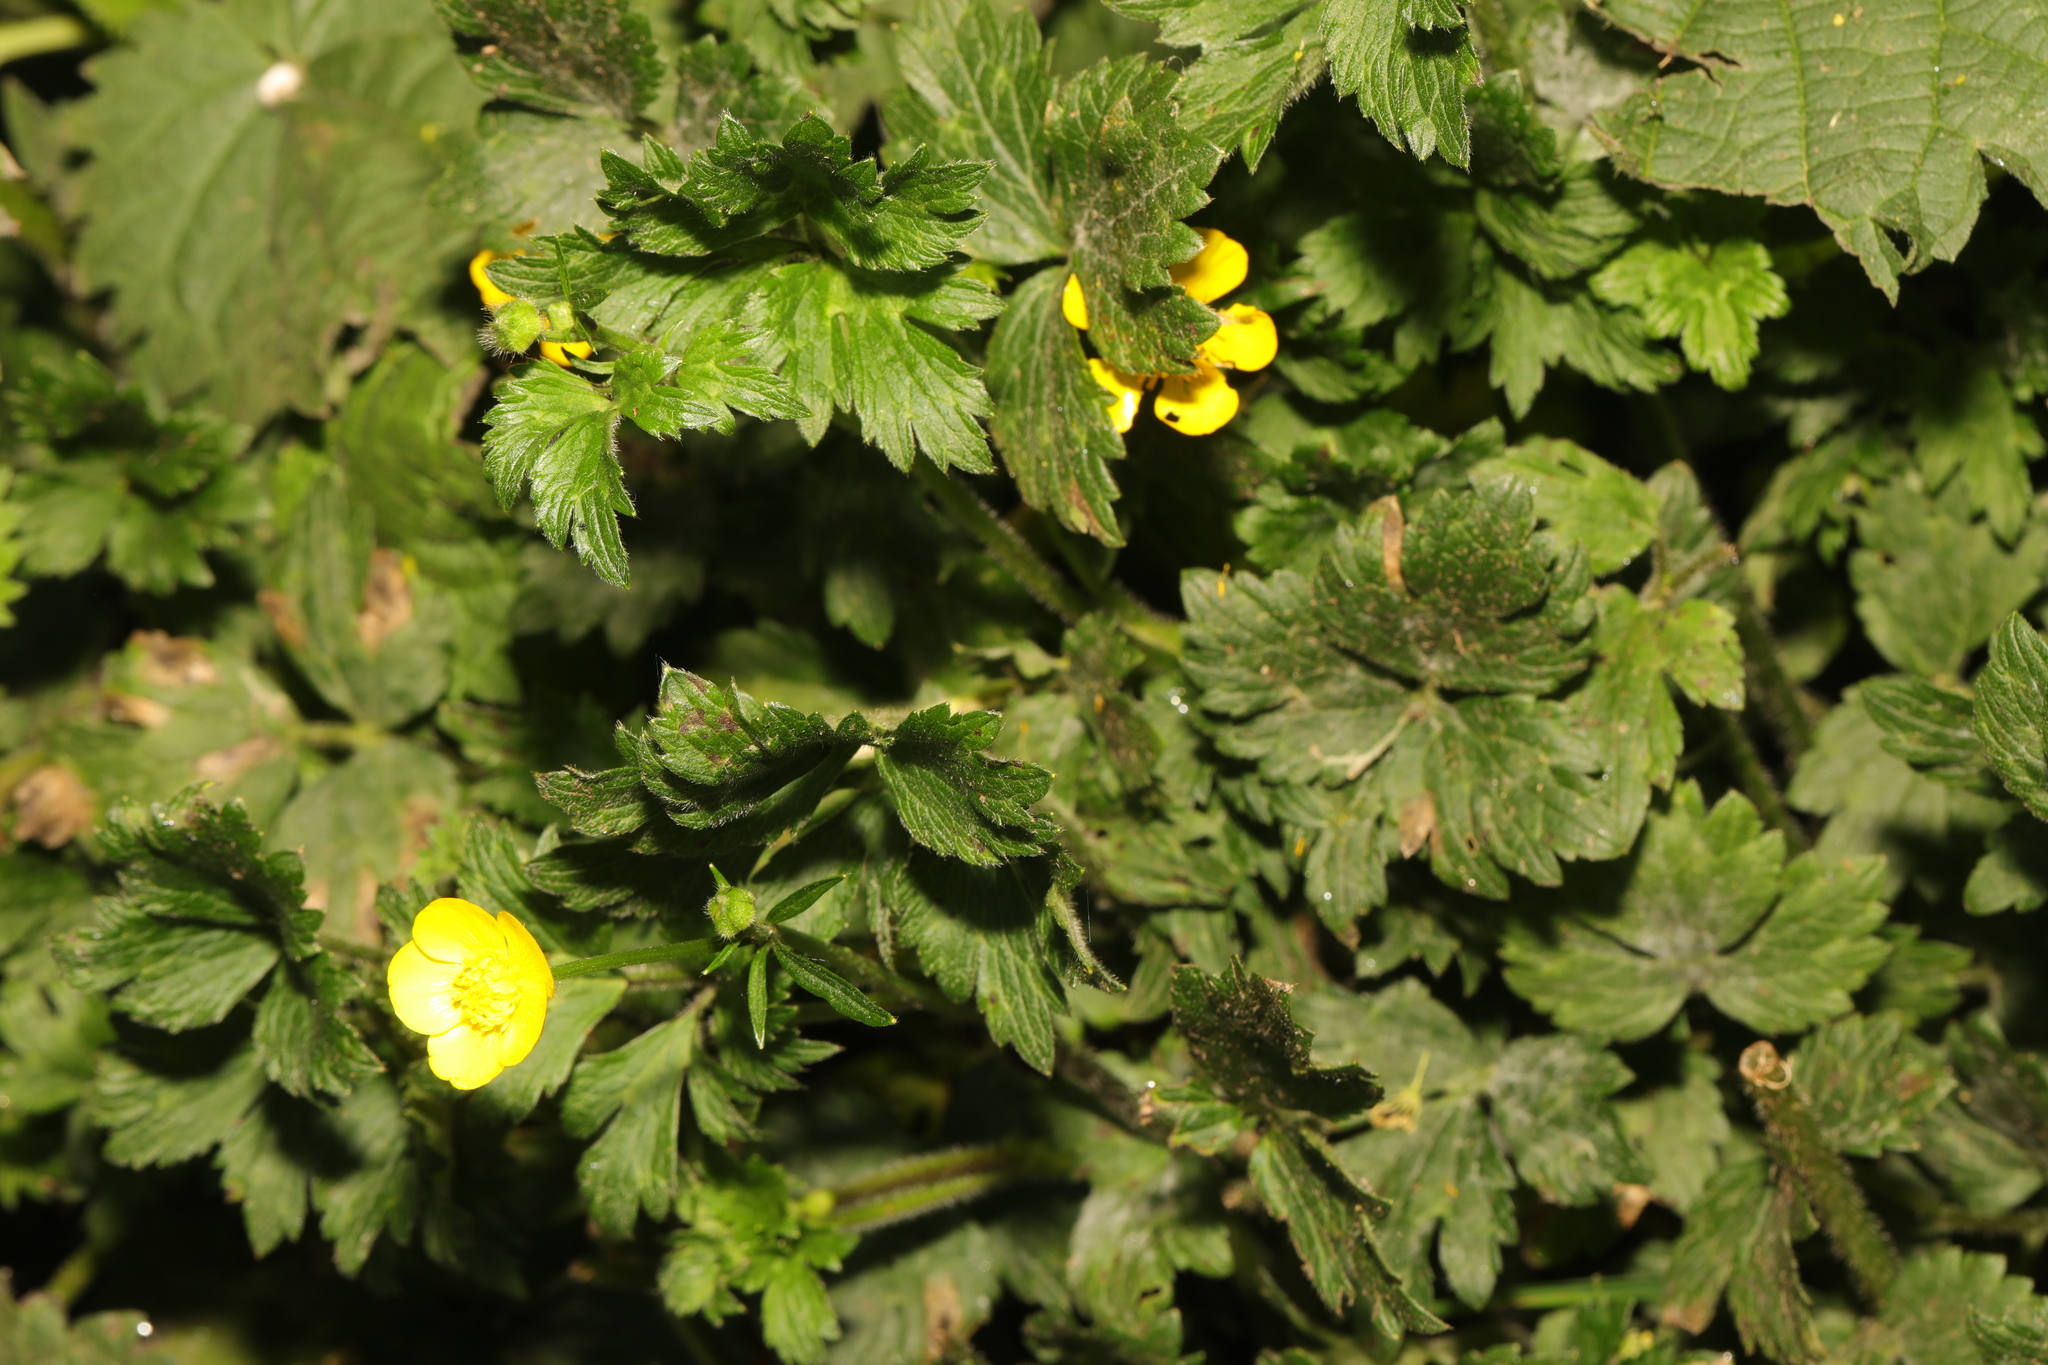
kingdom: Plantae
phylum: Tracheophyta
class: Magnoliopsida
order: Ranunculales
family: Ranunculaceae
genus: Ranunculus
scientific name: Ranunculus repens
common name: Creeping buttercup
